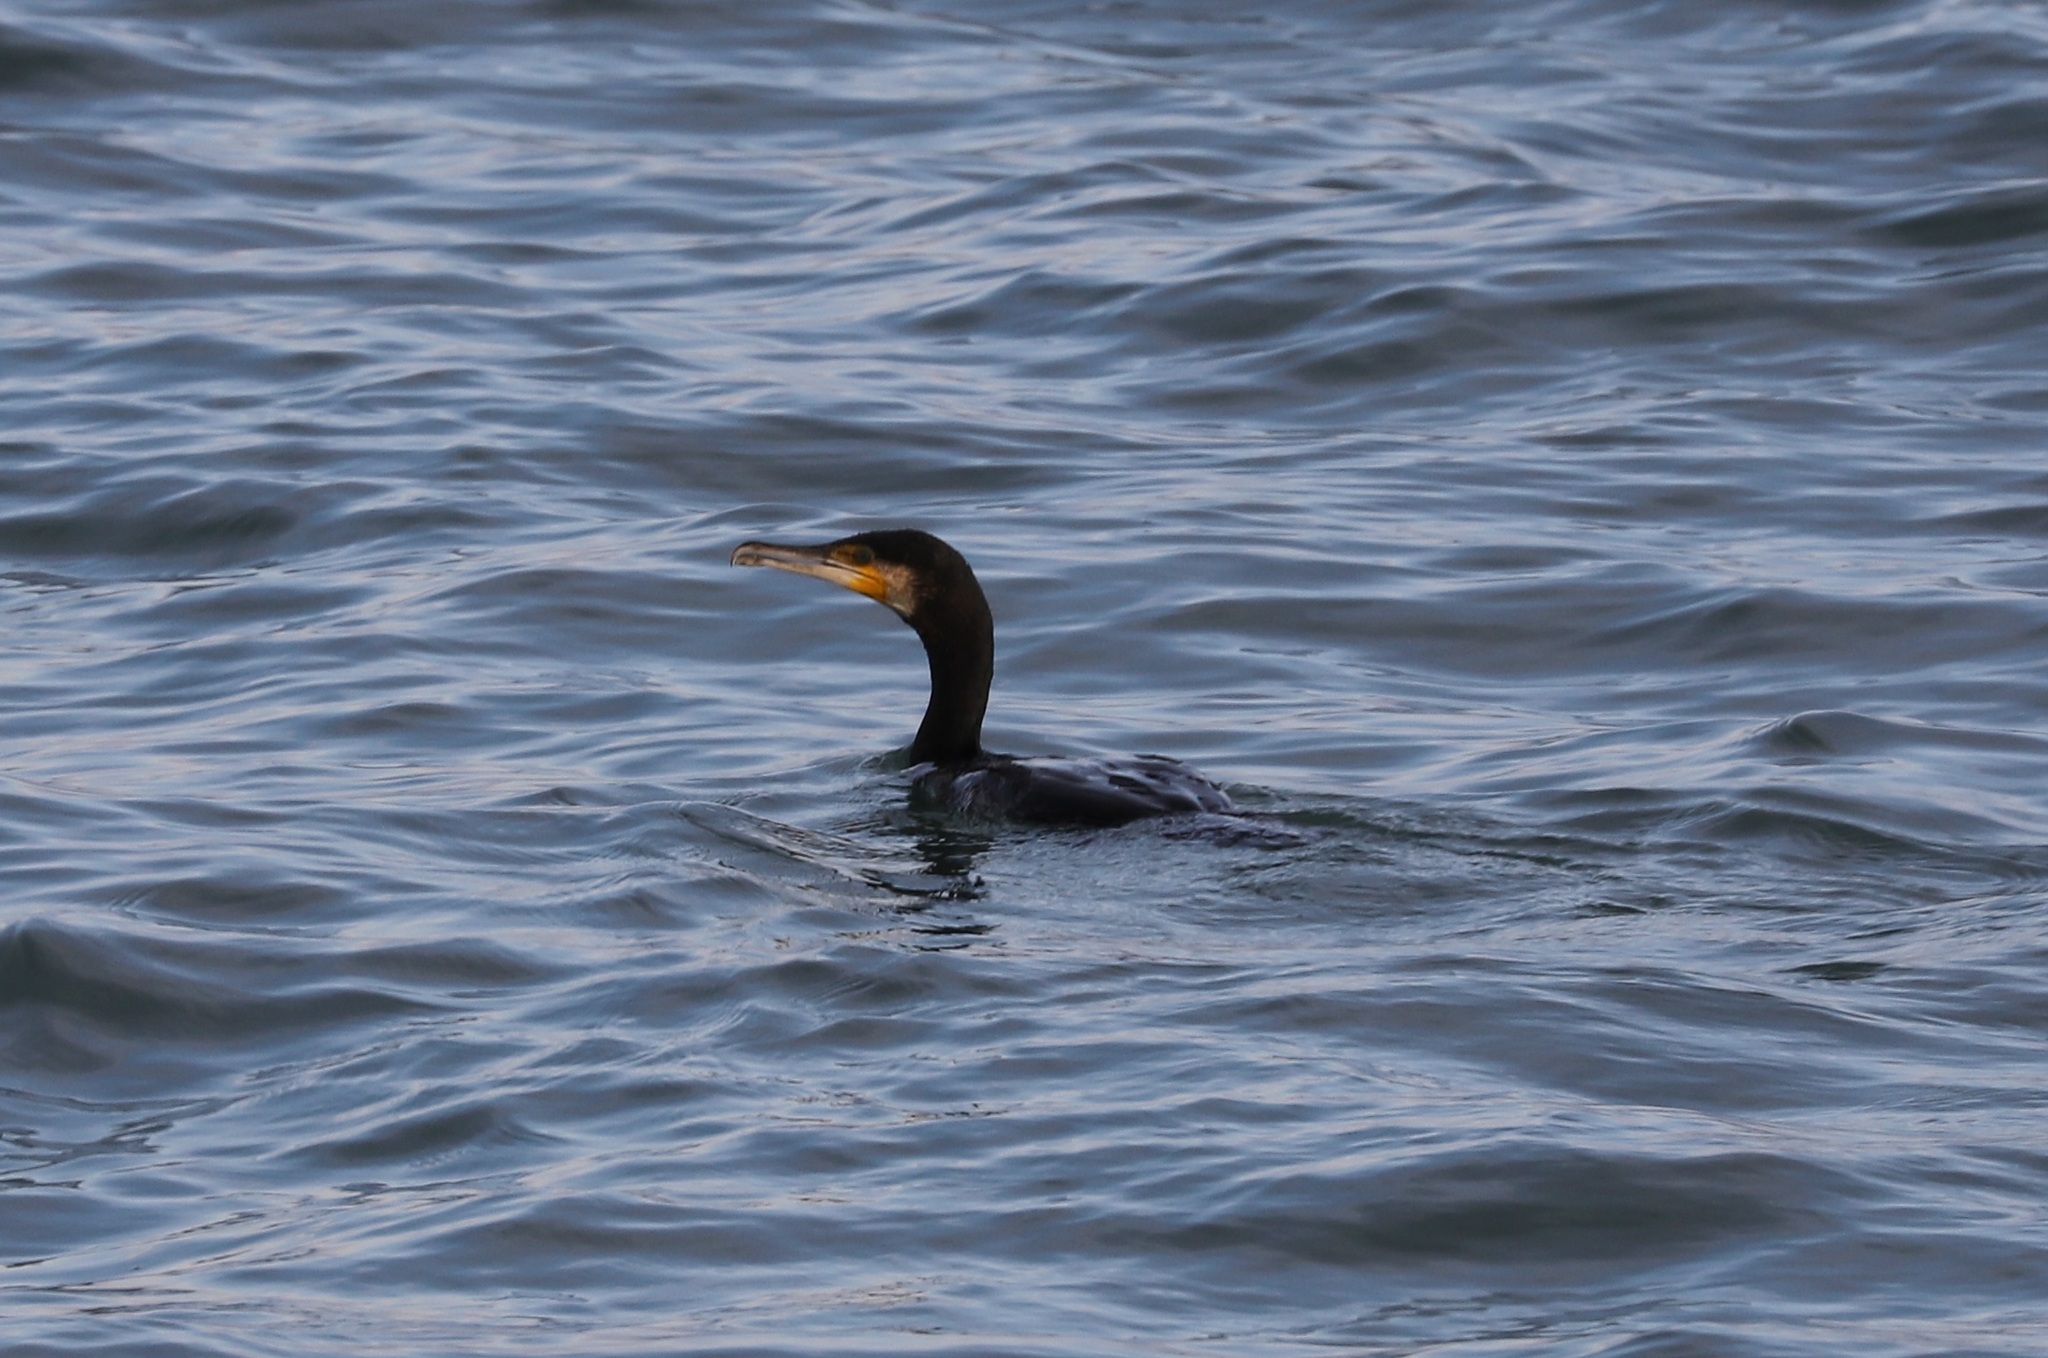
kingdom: Animalia
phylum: Chordata
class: Aves
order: Suliformes
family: Phalacrocoracidae
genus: Phalacrocorax
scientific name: Phalacrocorax carbo
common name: Great cormorant
